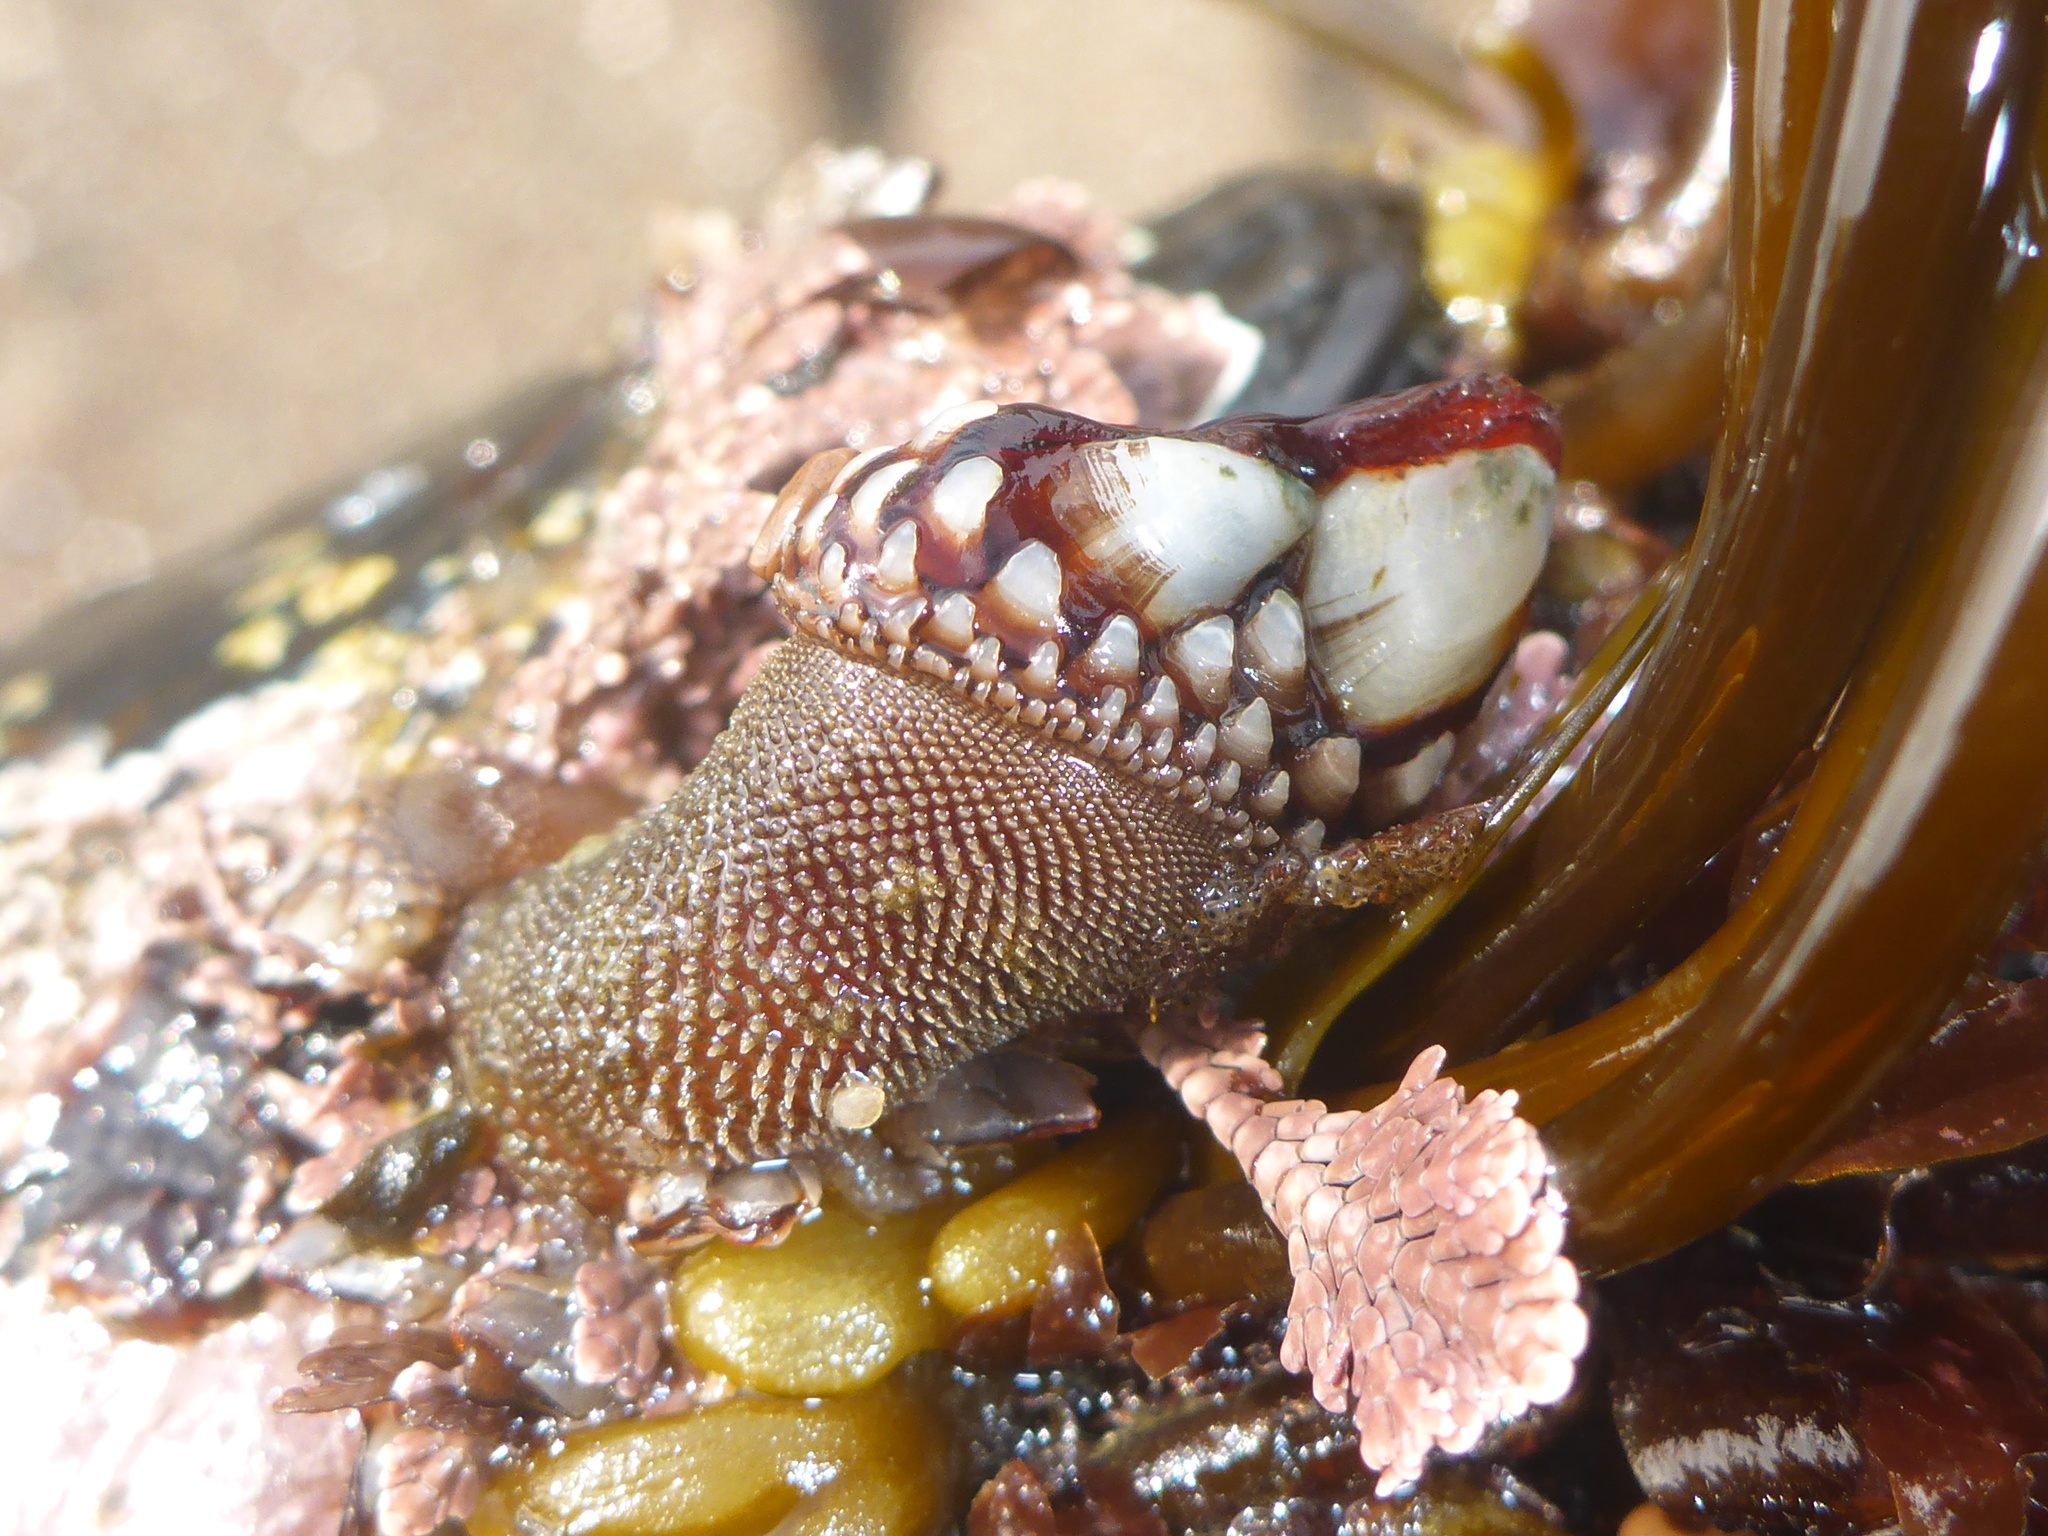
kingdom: Animalia
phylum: Arthropoda
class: Maxillopoda
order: Pedunculata
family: Pollicipedidae
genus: Pollicipes
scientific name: Pollicipes polymerus
